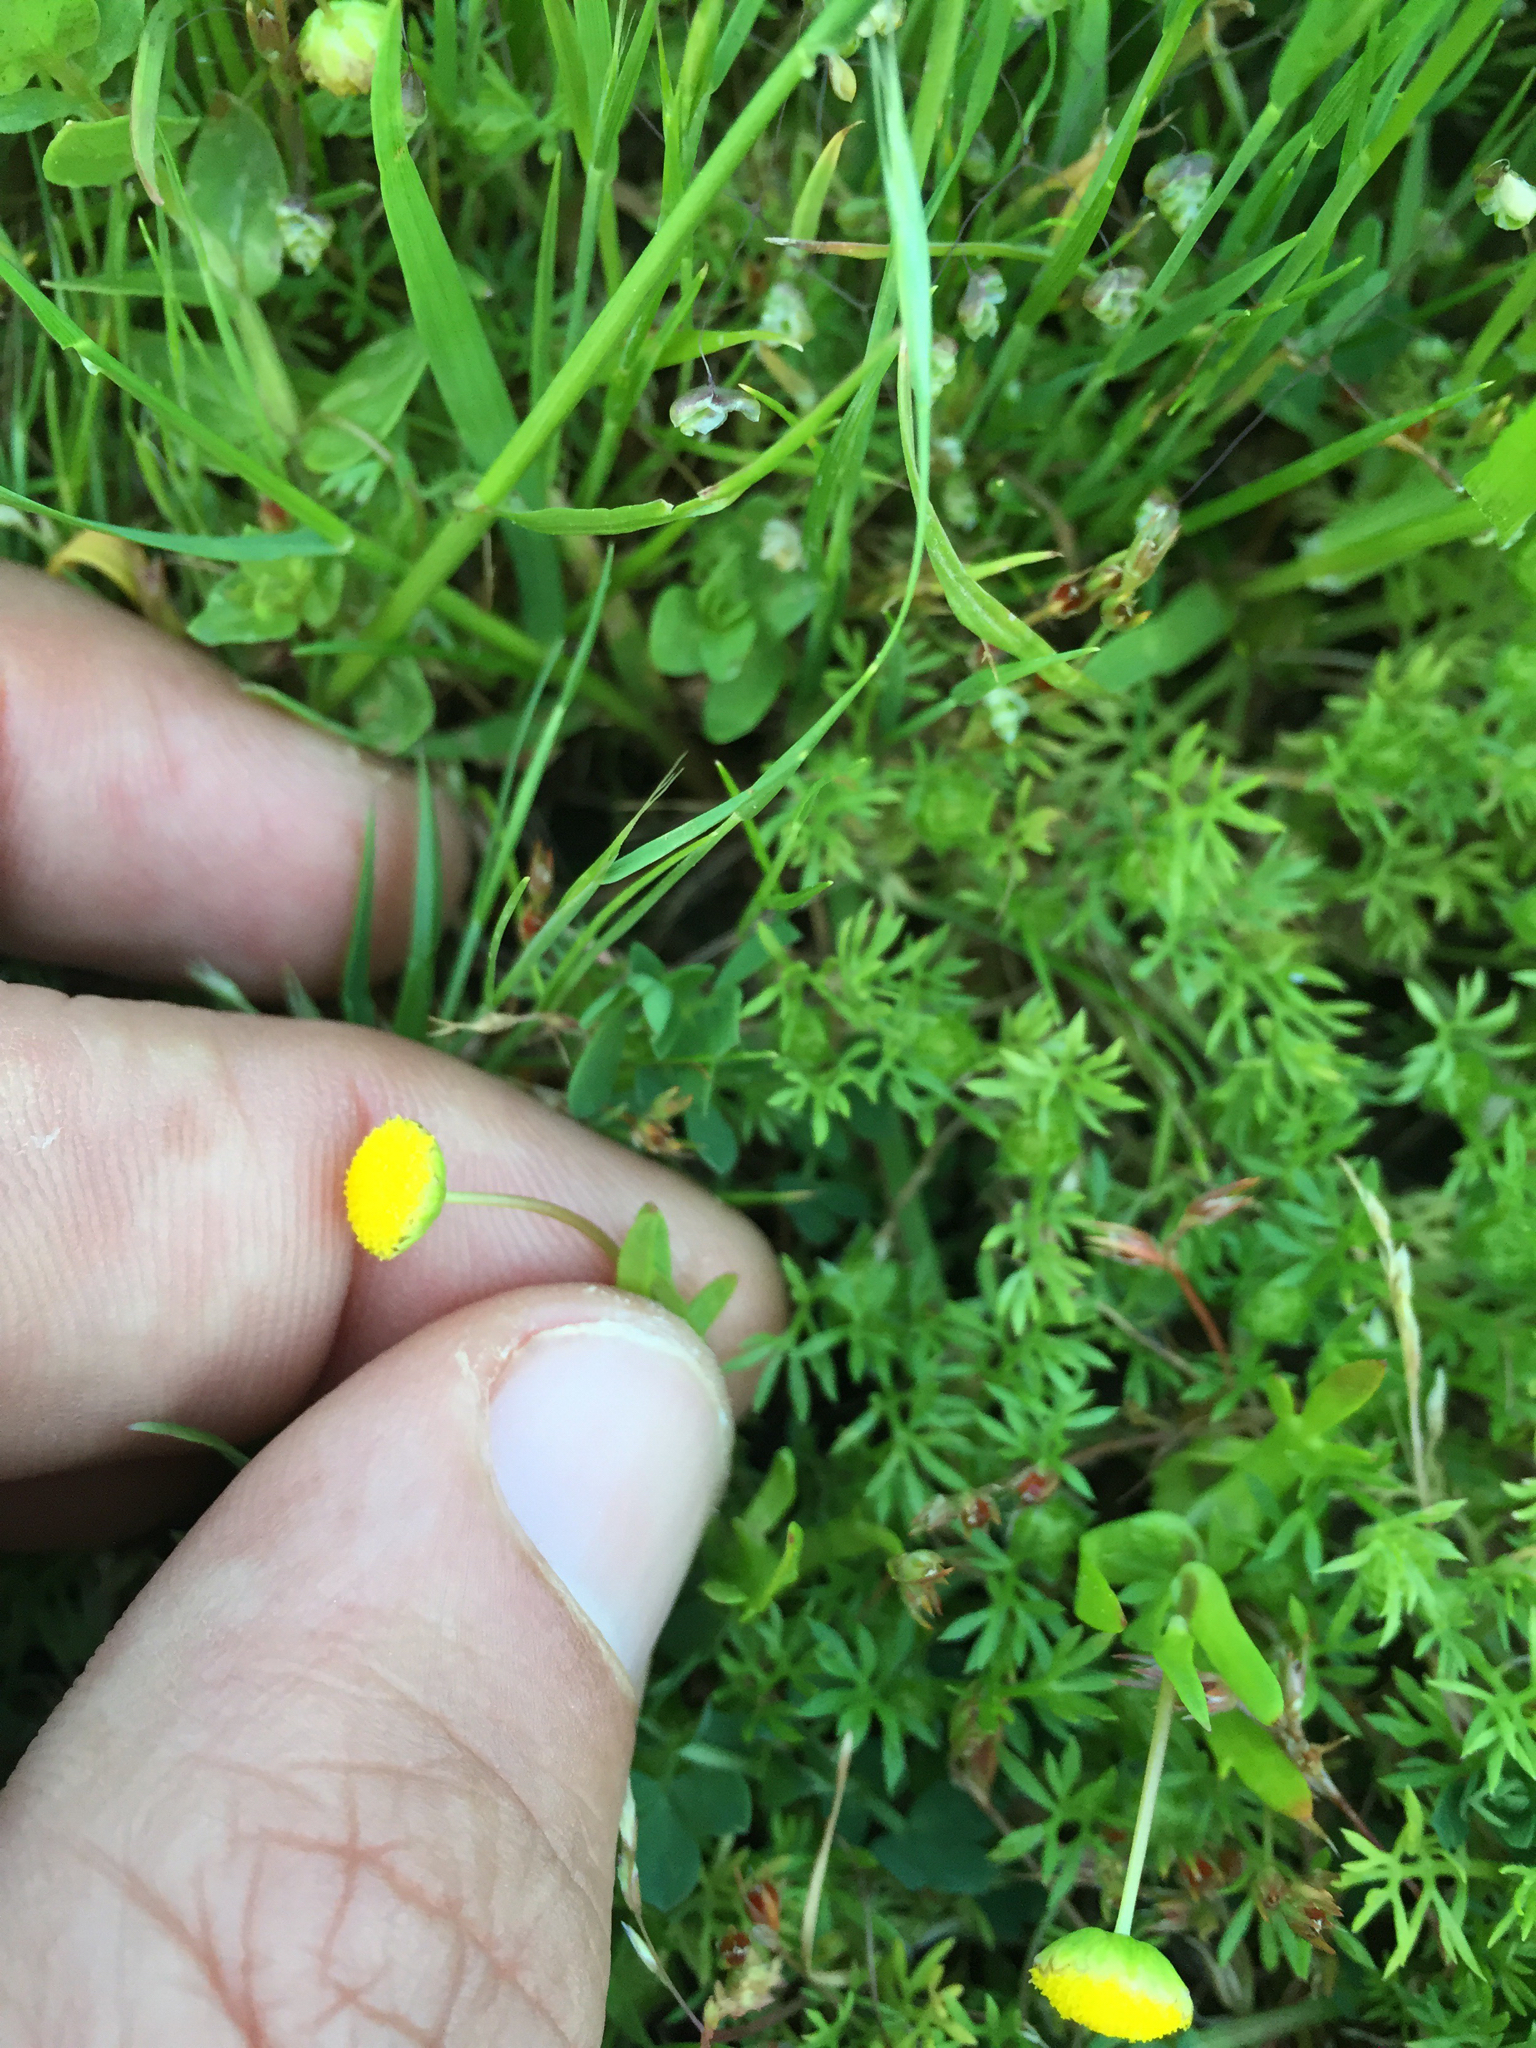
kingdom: Plantae
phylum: Tracheophyta
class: Magnoliopsida
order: Asterales
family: Asteraceae
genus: Cotula
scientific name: Cotula coronopifolia
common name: Buttonweed
